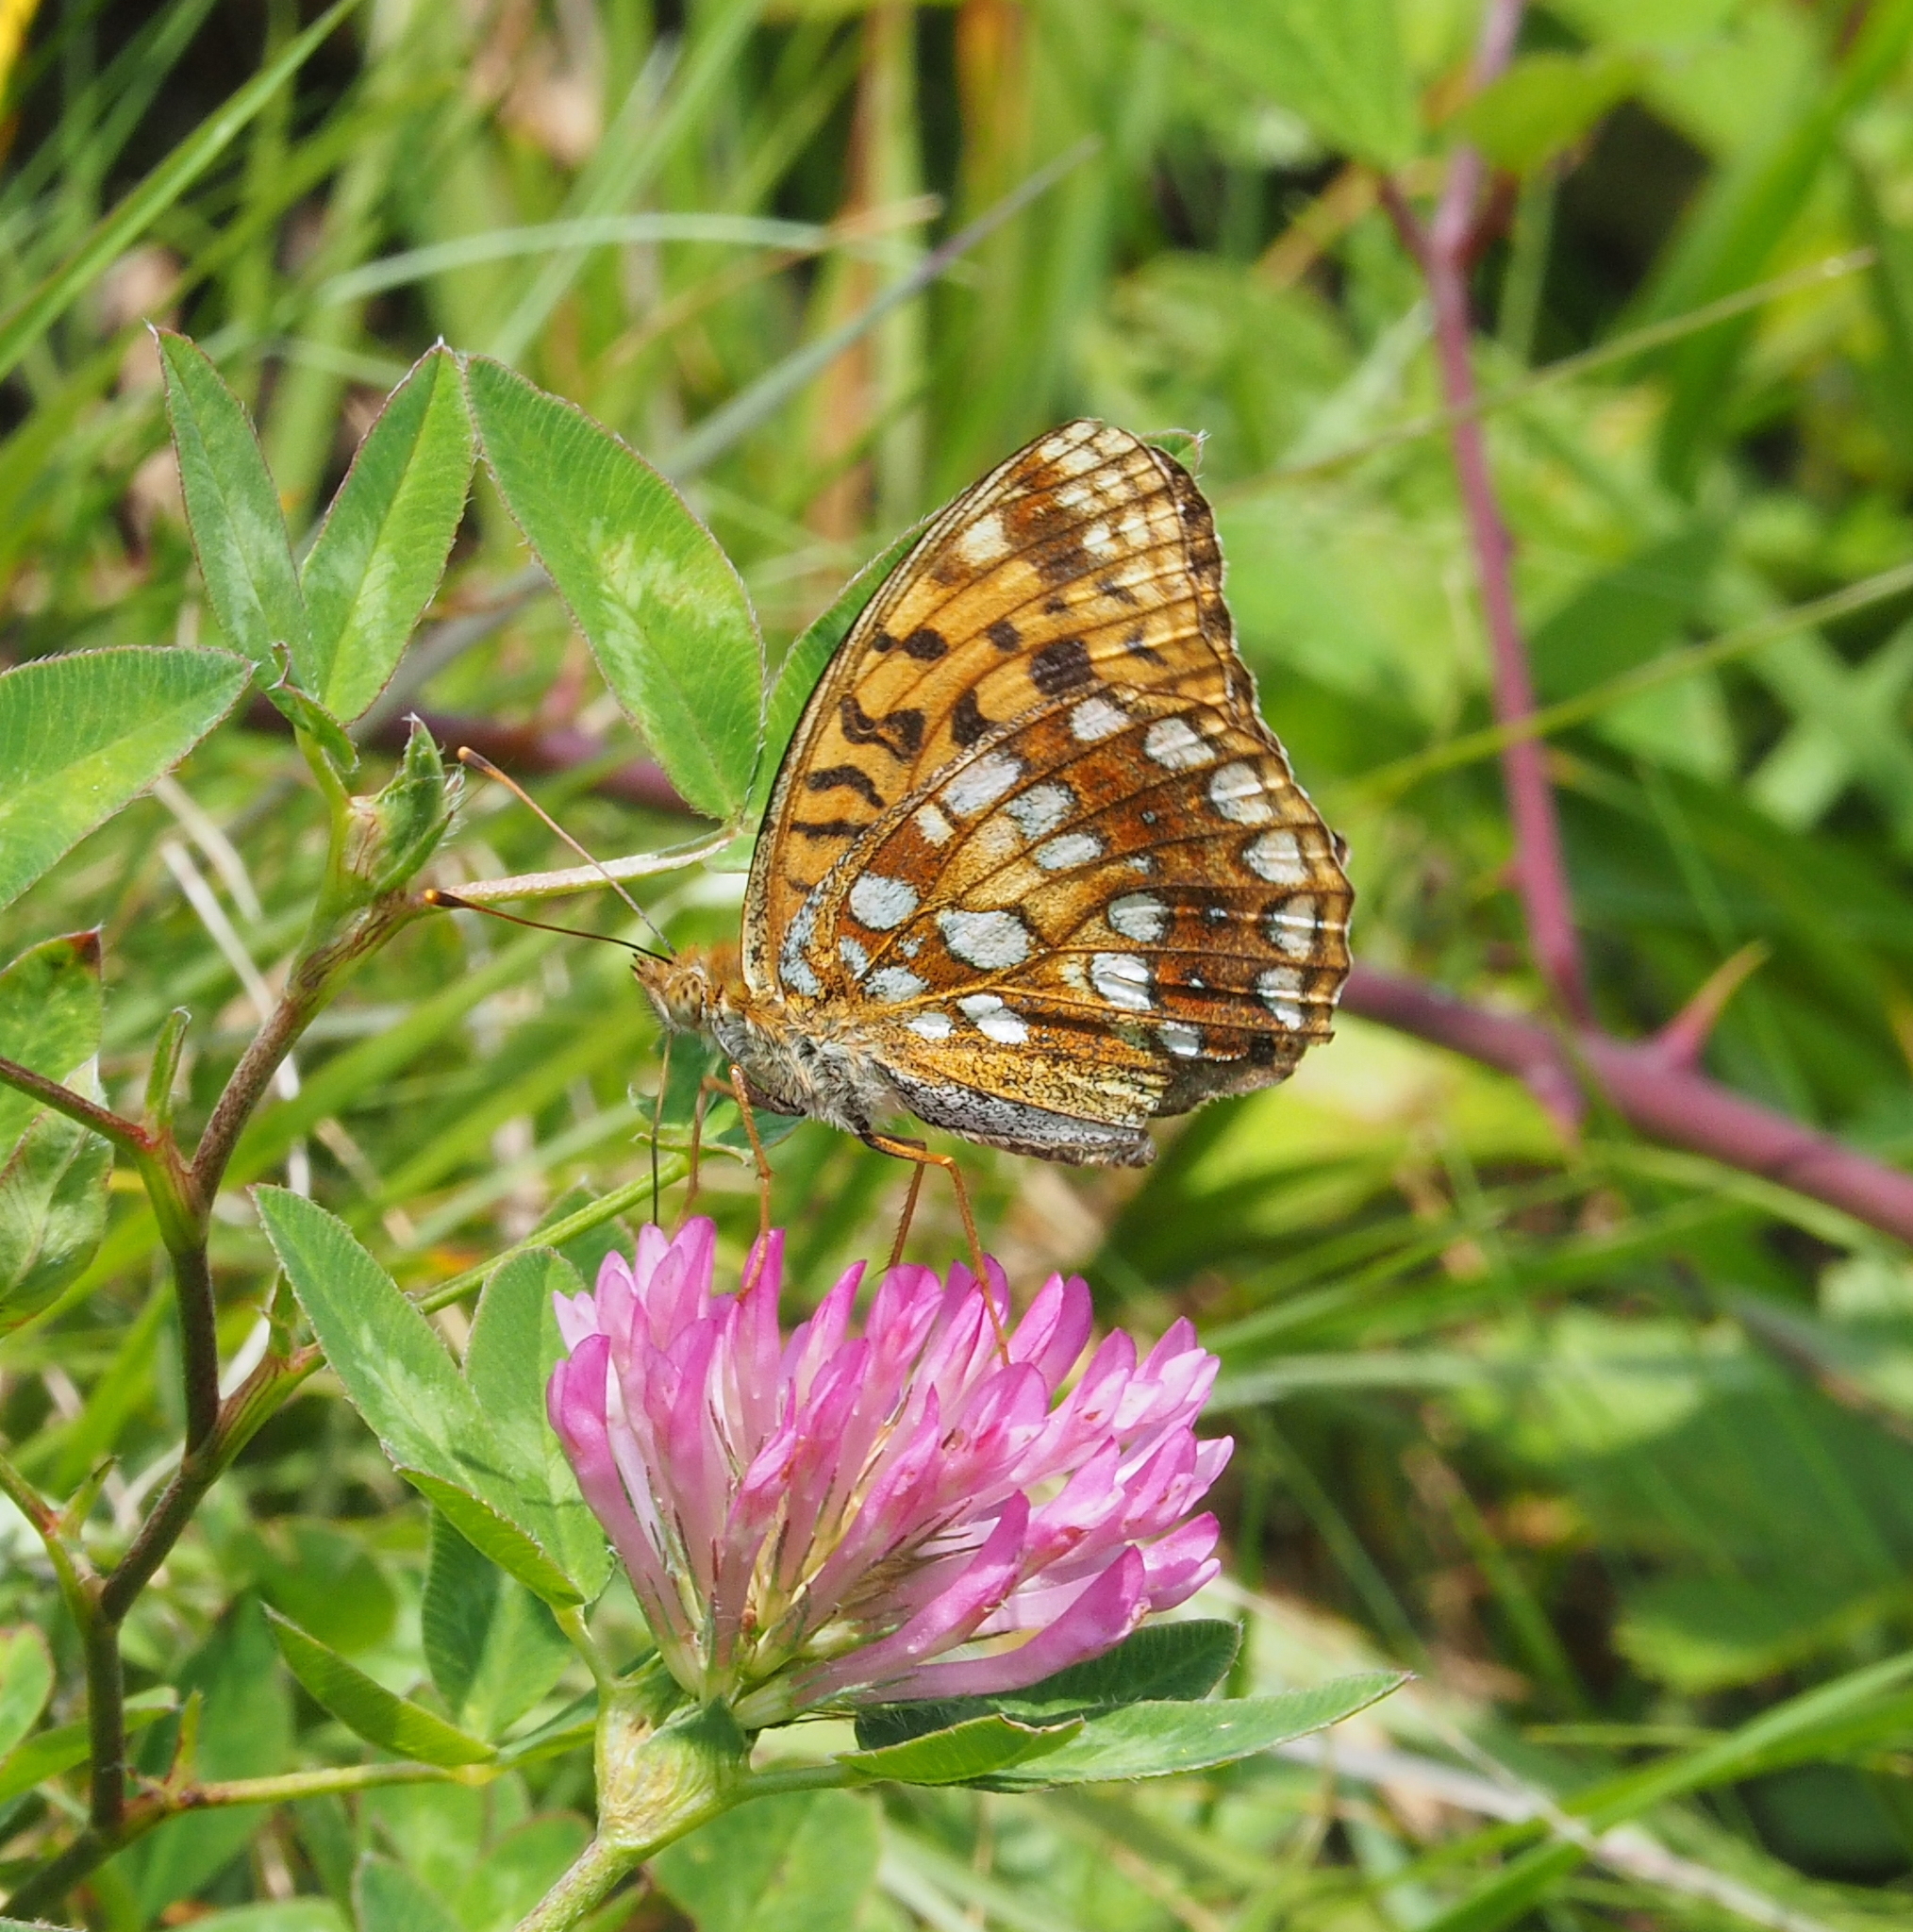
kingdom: Animalia
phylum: Arthropoda
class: Insecta
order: Lepidoptera
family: Nymphalidae
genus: Fabriciana
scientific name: Fabriciana adippe
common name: High brown fritillary
